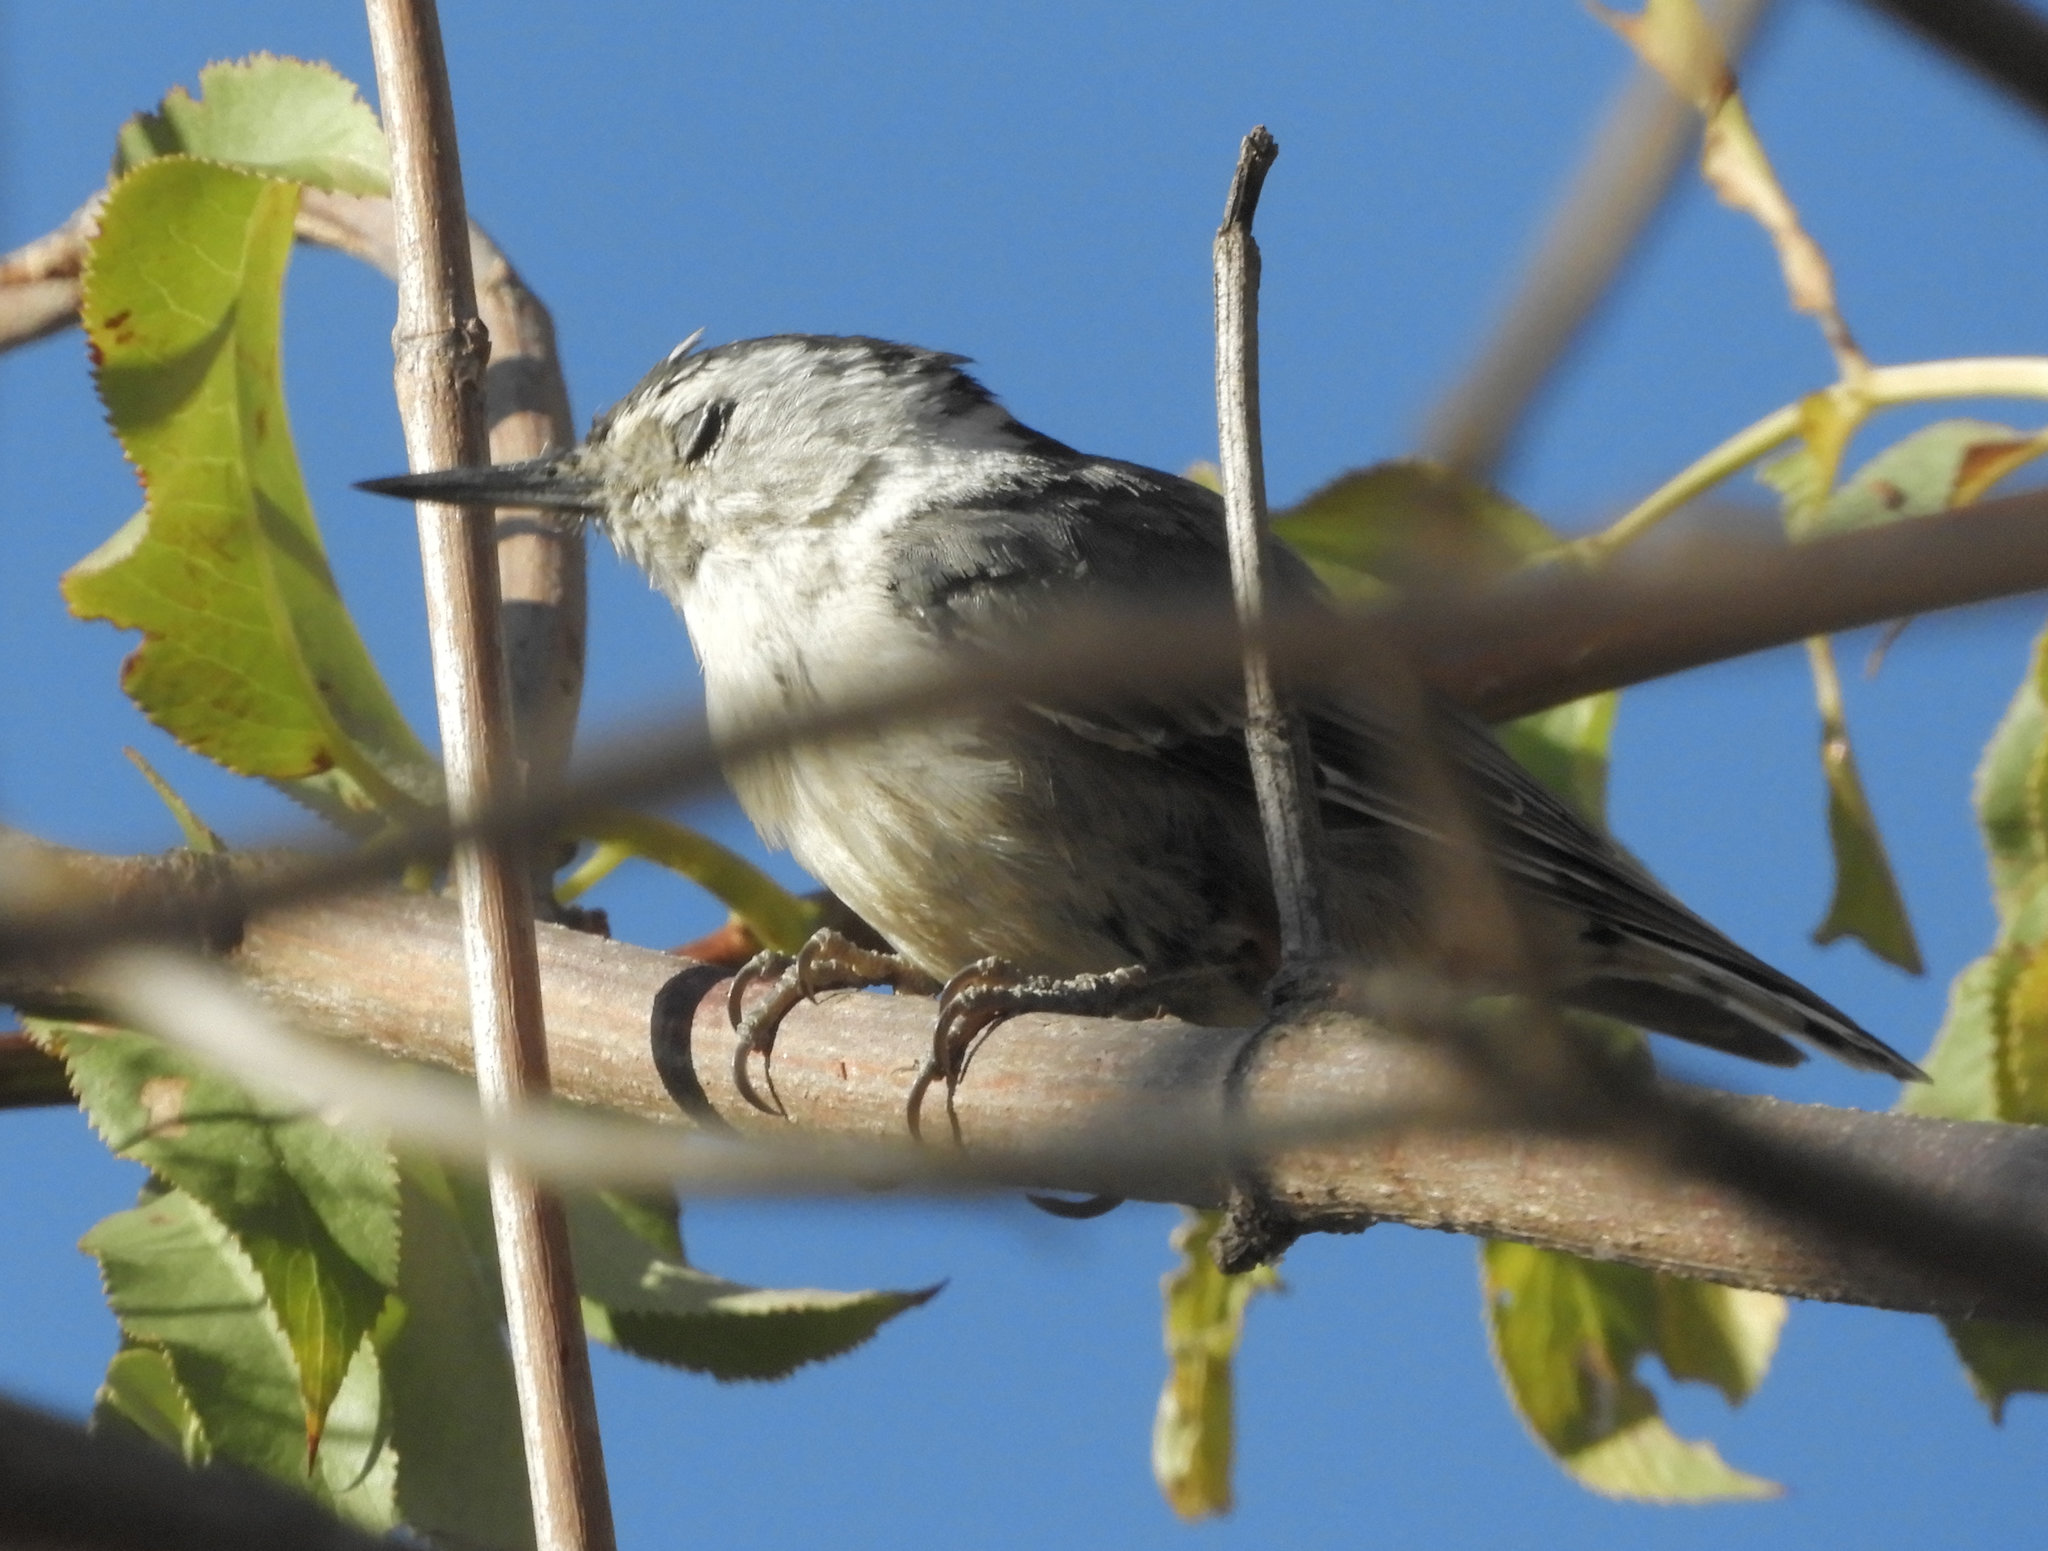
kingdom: Animalia
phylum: Chordata
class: Aves
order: Passeriformes
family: Sittidae
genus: Sitta
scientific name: Sitta carolinensis
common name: White-breasted nuthatch
